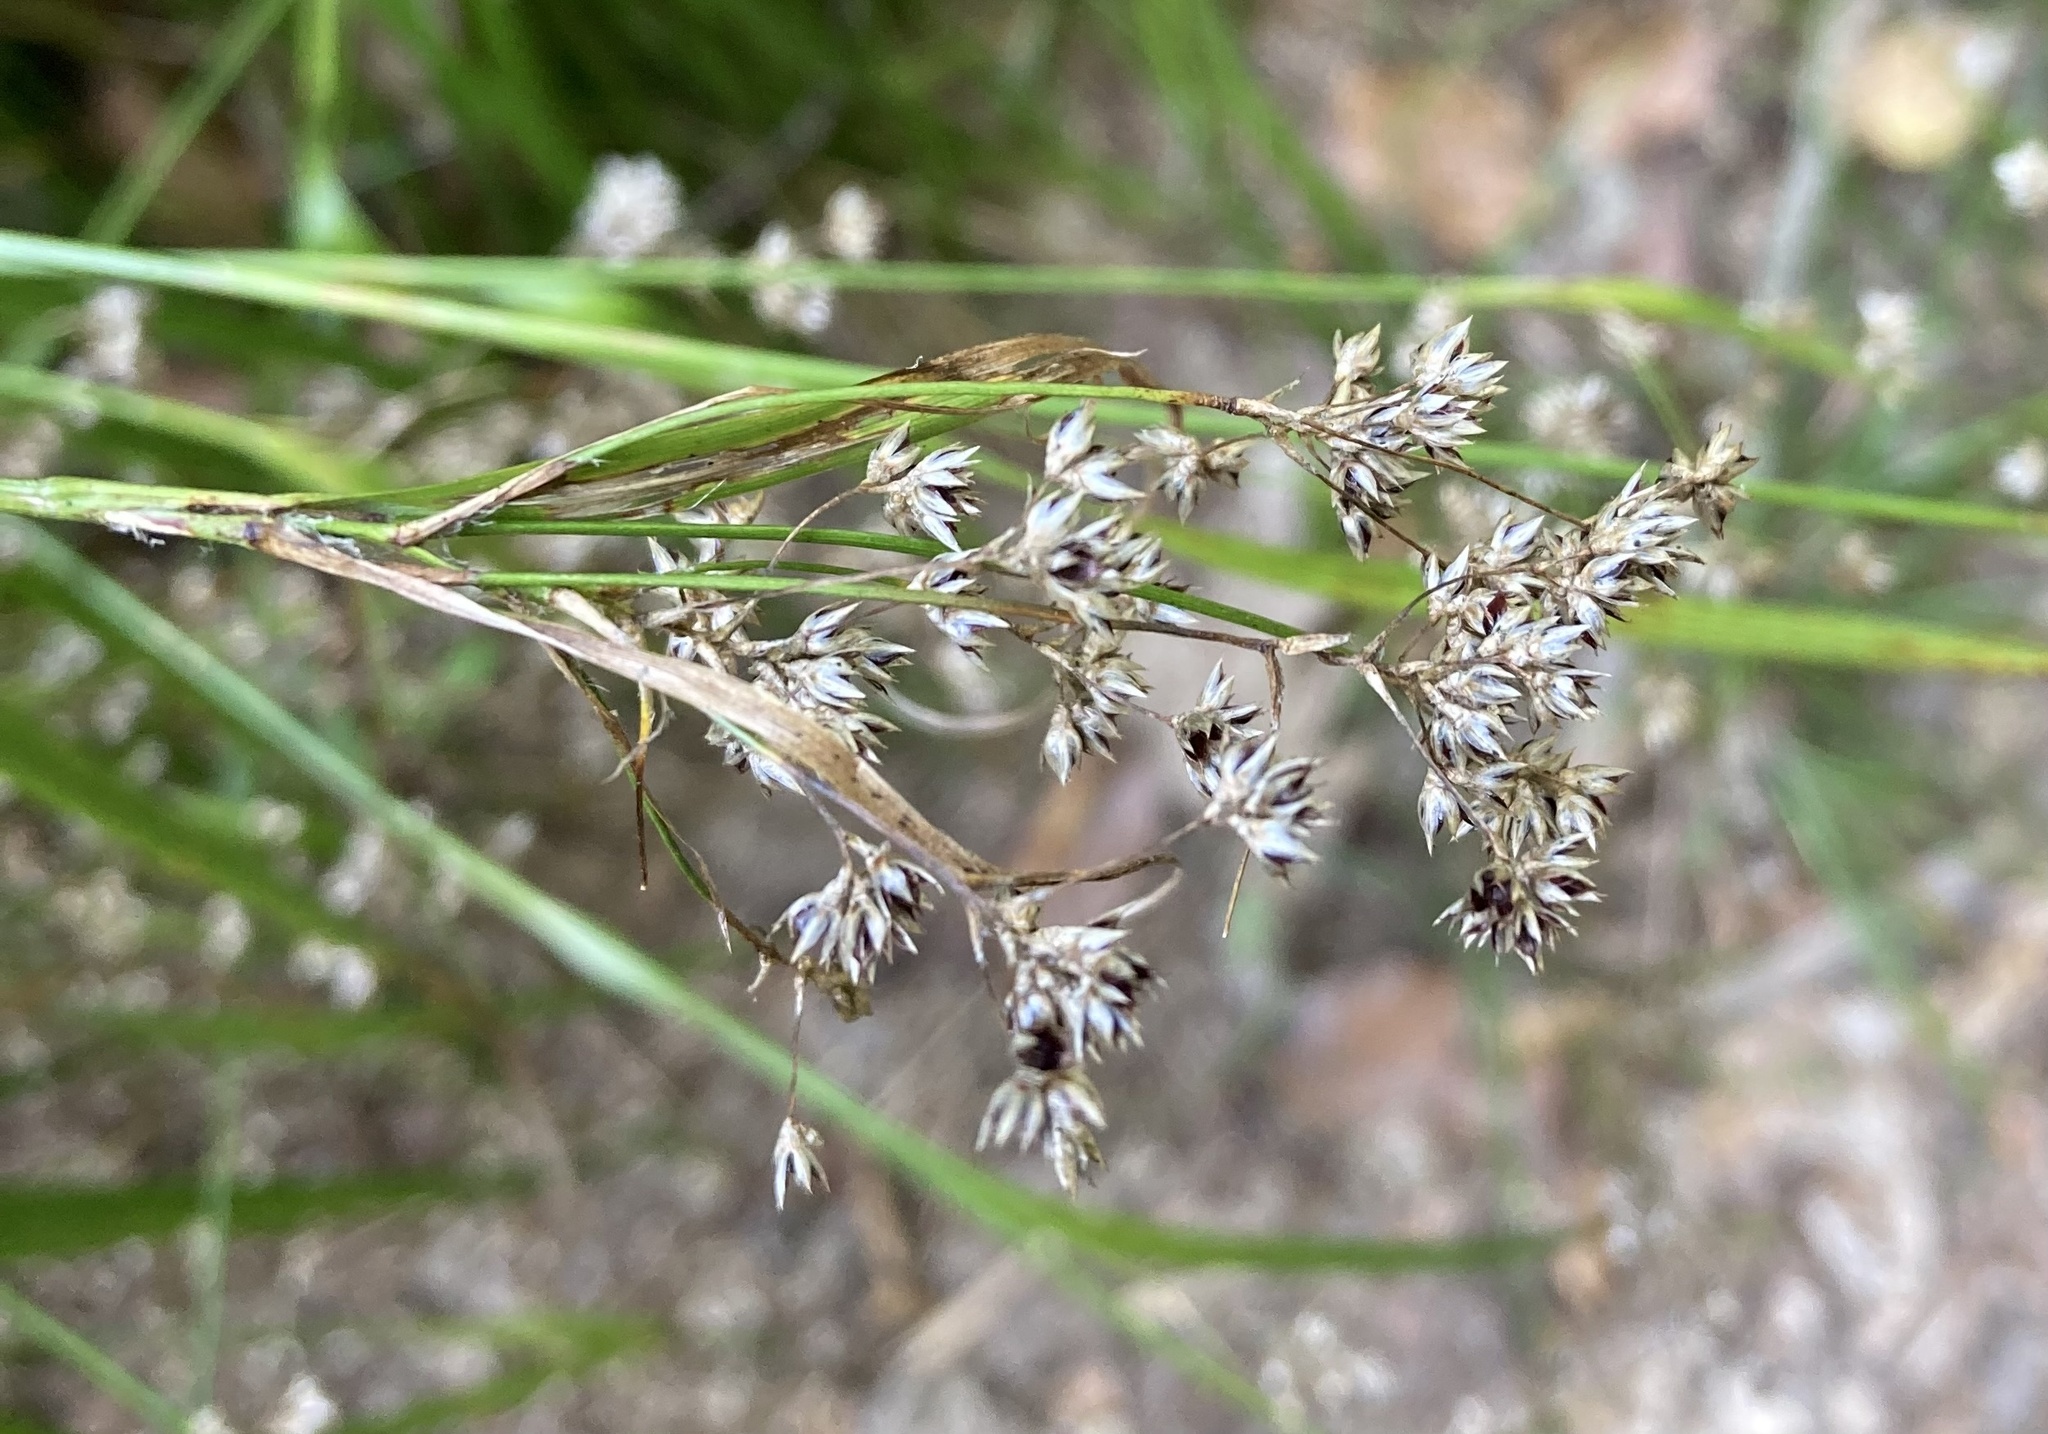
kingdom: Plantae
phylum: Tracheophyta
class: Liliopsida
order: Poales
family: Juncaceae
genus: Luzula
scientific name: Luzula luzuloides
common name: White wood-rush
